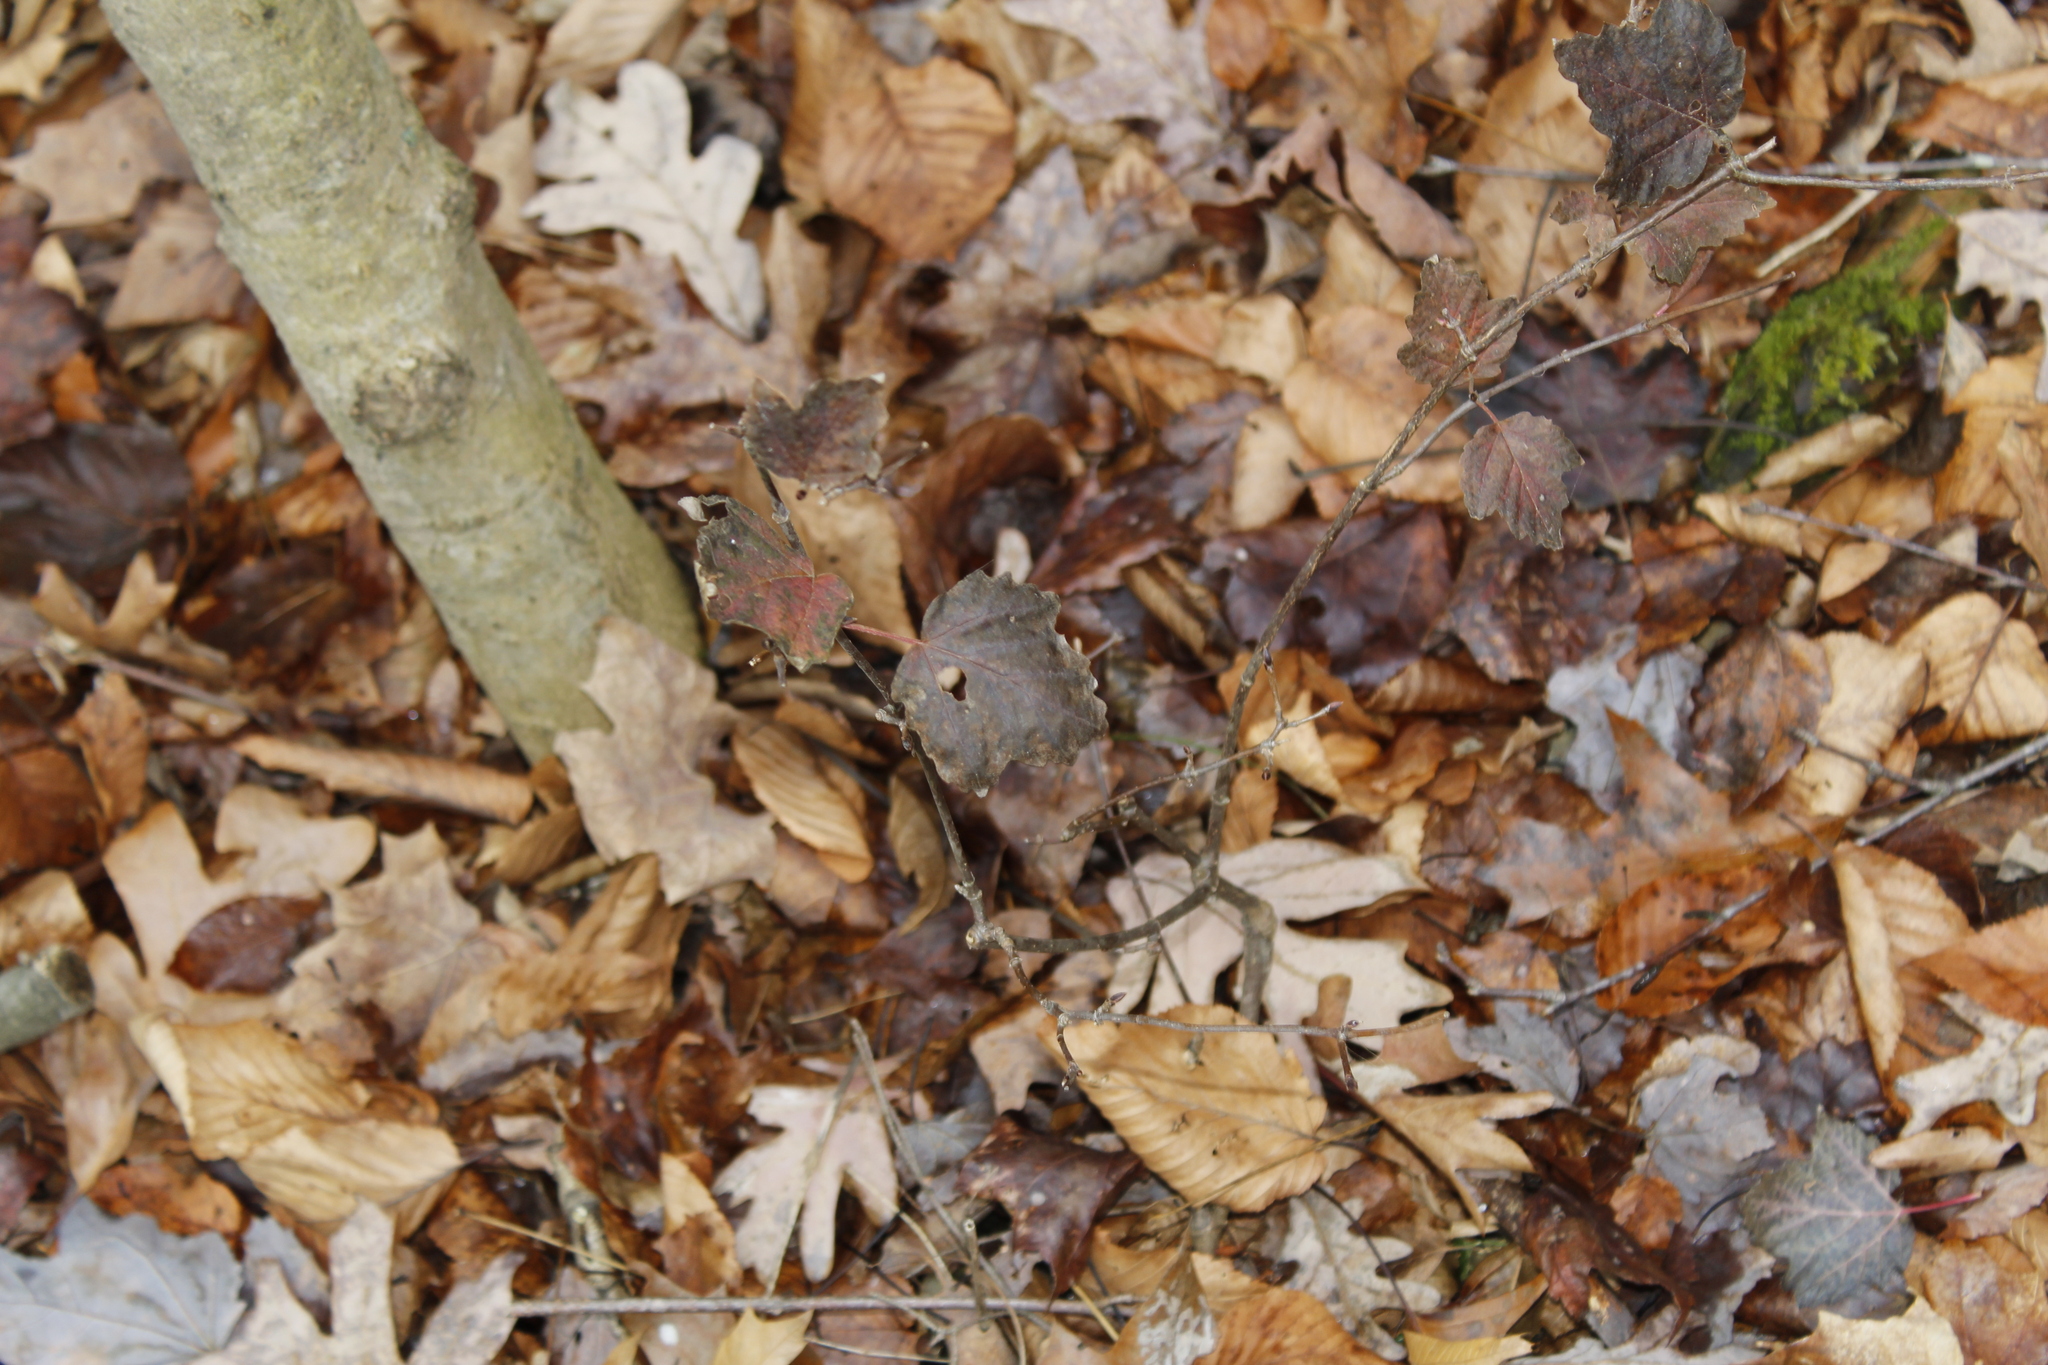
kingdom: Plantae
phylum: Tracheophyta
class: Magnoliopsida
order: Dipsacales
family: Viburnaceae
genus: Viburnum
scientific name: Viburnum acerifolium
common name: Dockmackie
